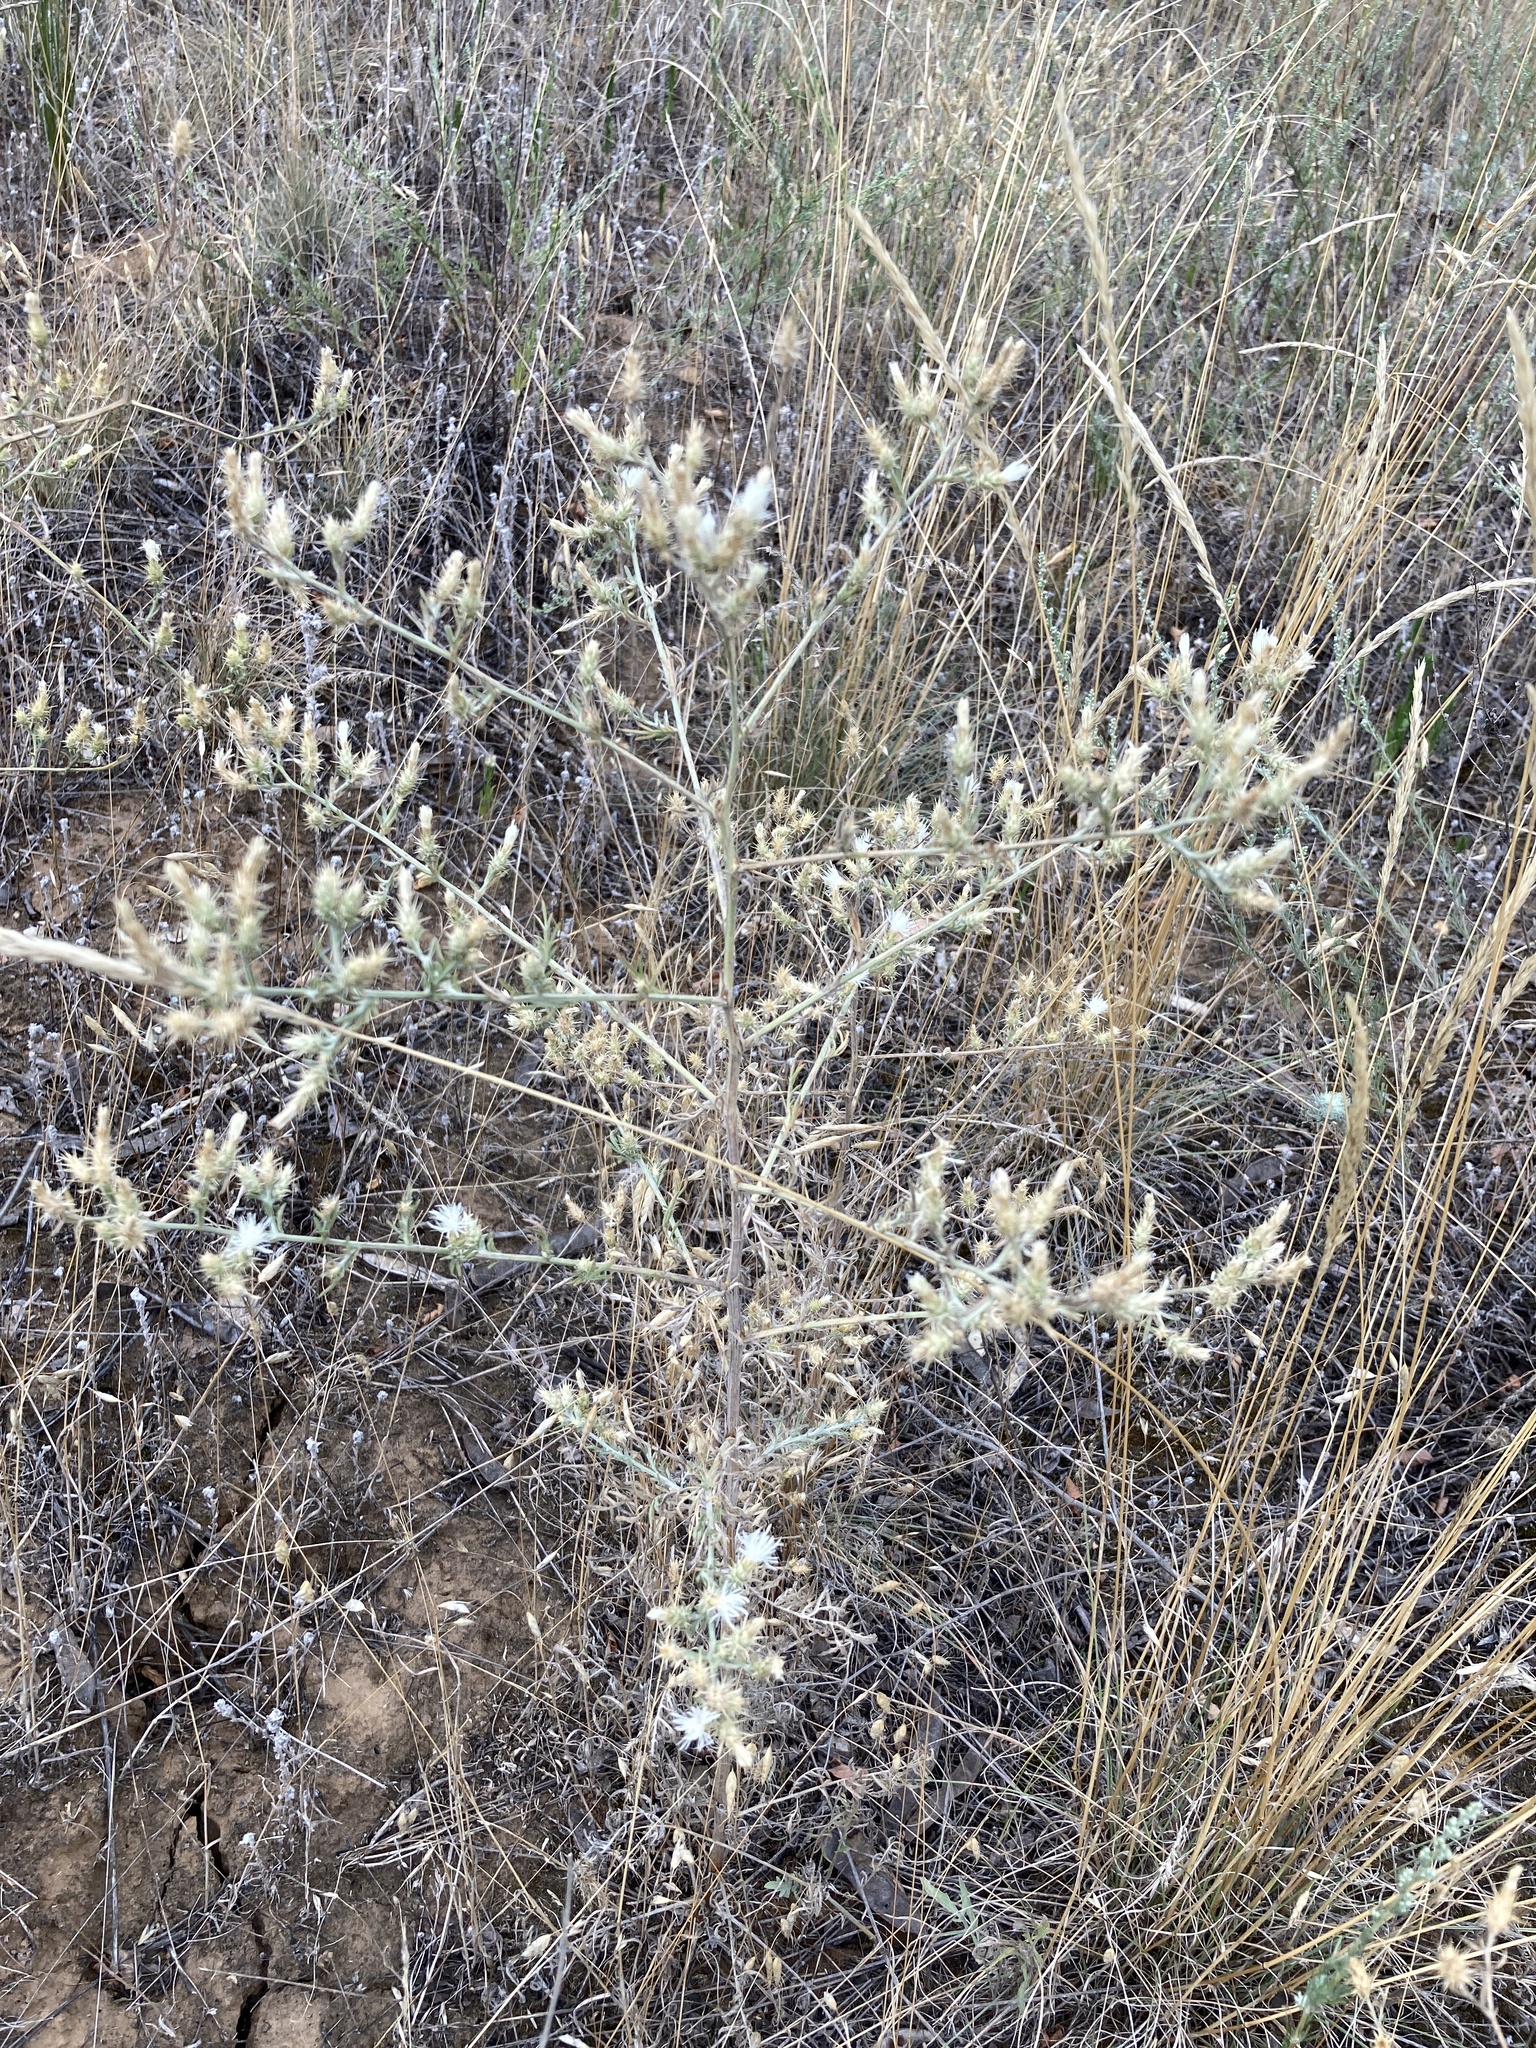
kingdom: Plantae
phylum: Tracheophyta
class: Magnoliopsida
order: Asterales
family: Asteraceae
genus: Centaurea
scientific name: Centaurea diffusa
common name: Diffuse knapweed
